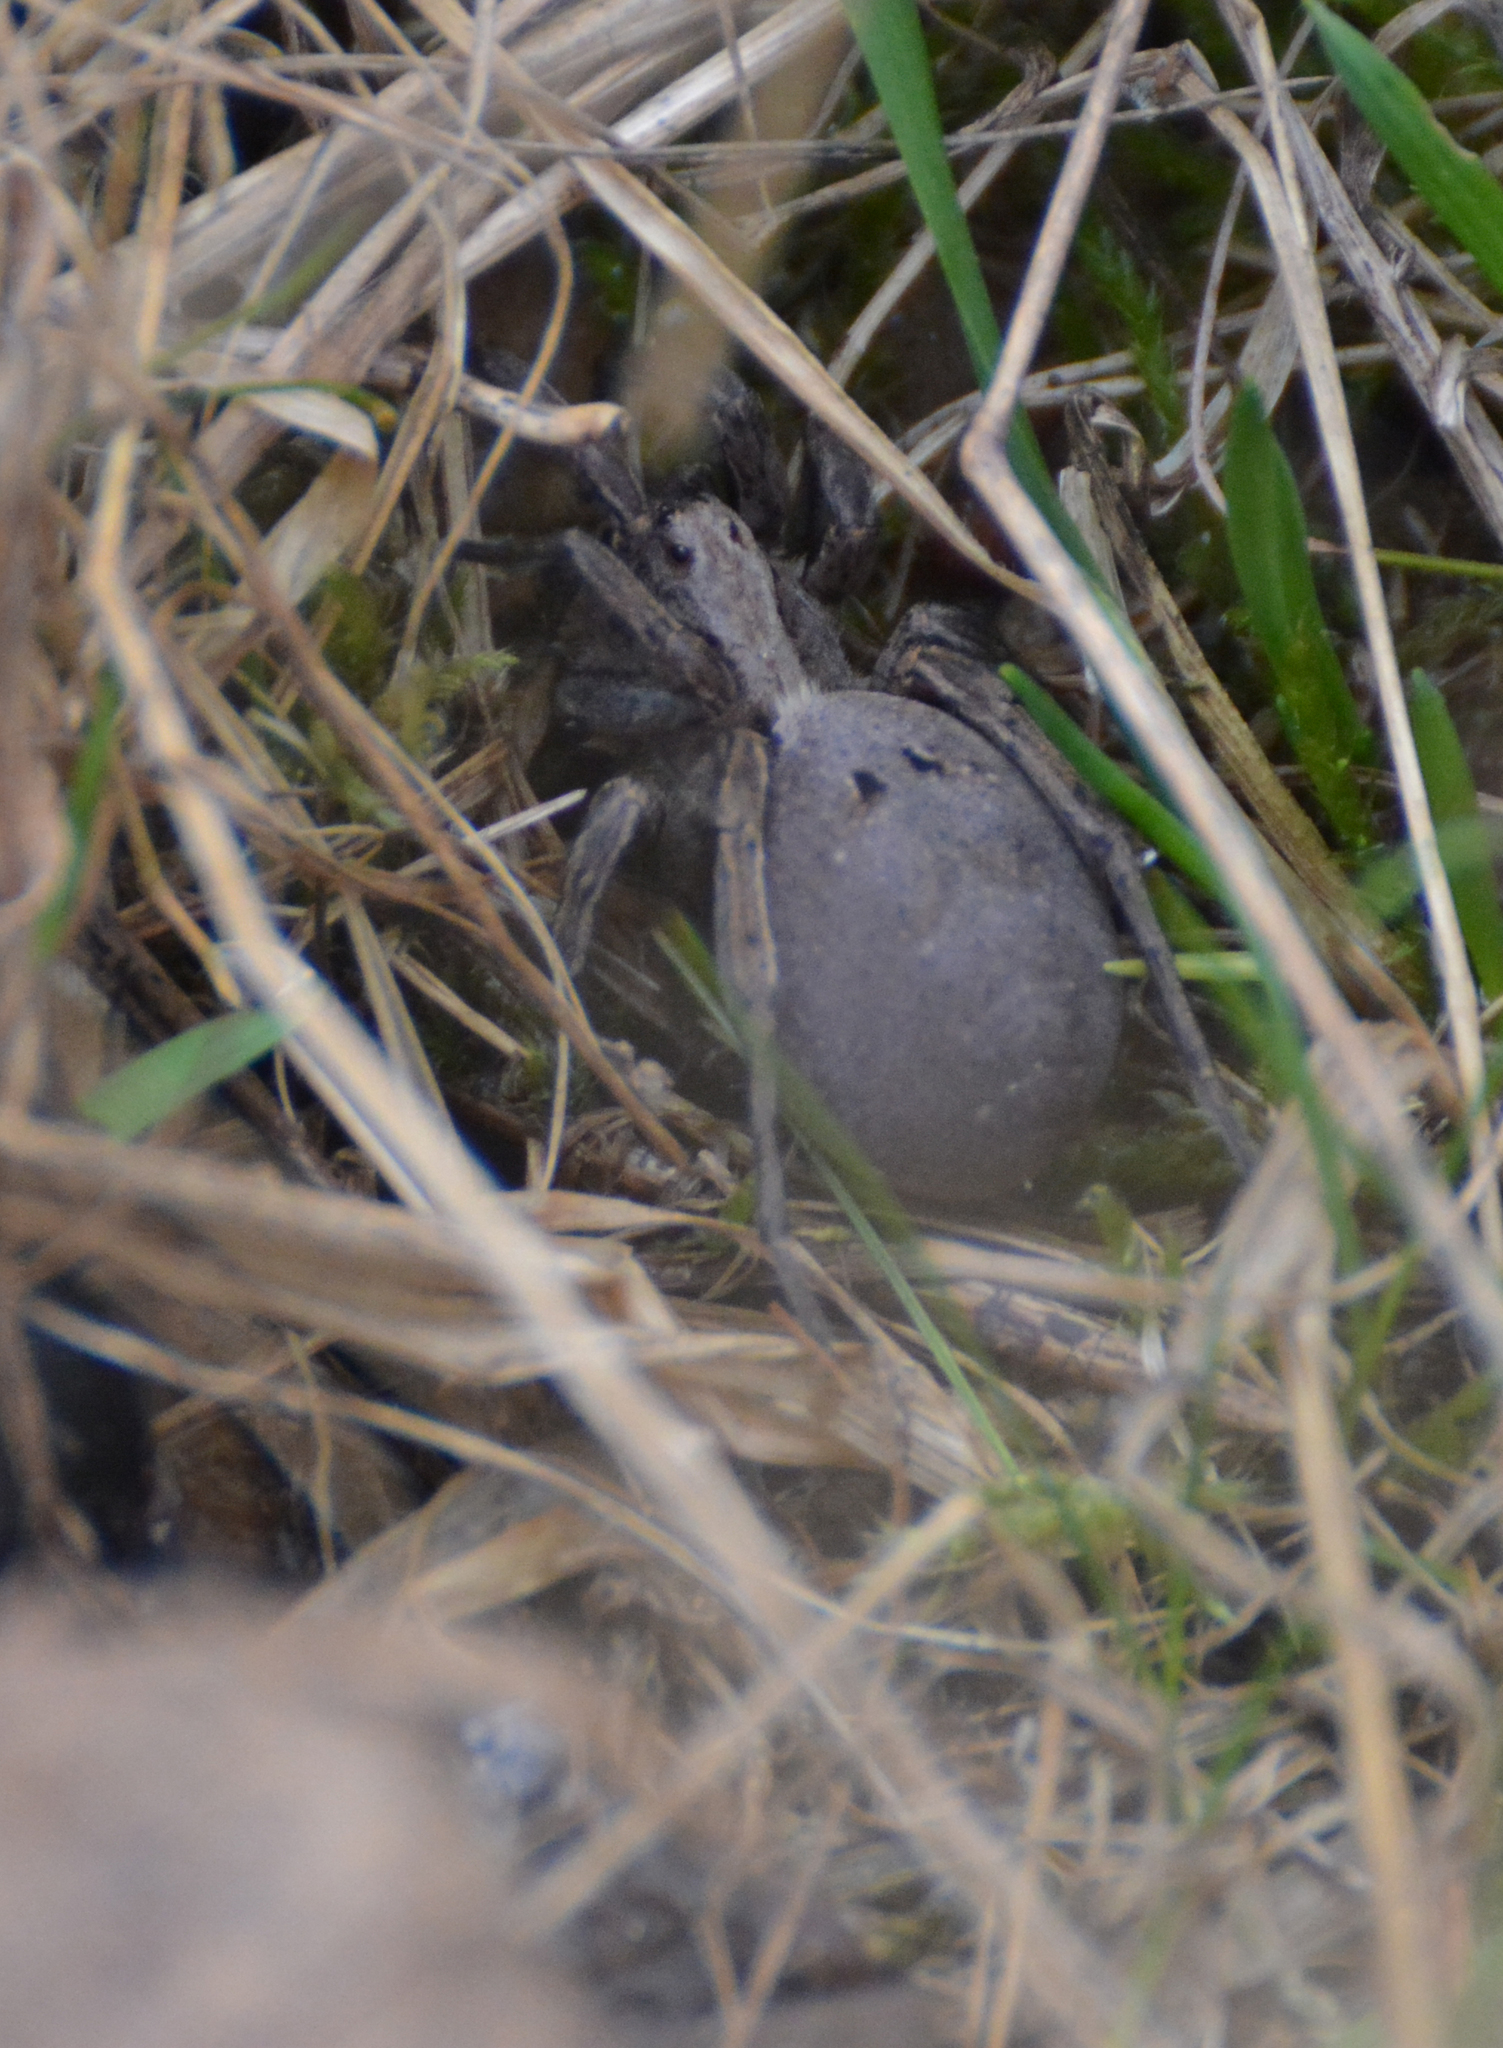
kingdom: Animalia
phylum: Arthropoda
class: Arachnida
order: Araneae
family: Lycosidae
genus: Alopecosa
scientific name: Alopecosa inquilina
